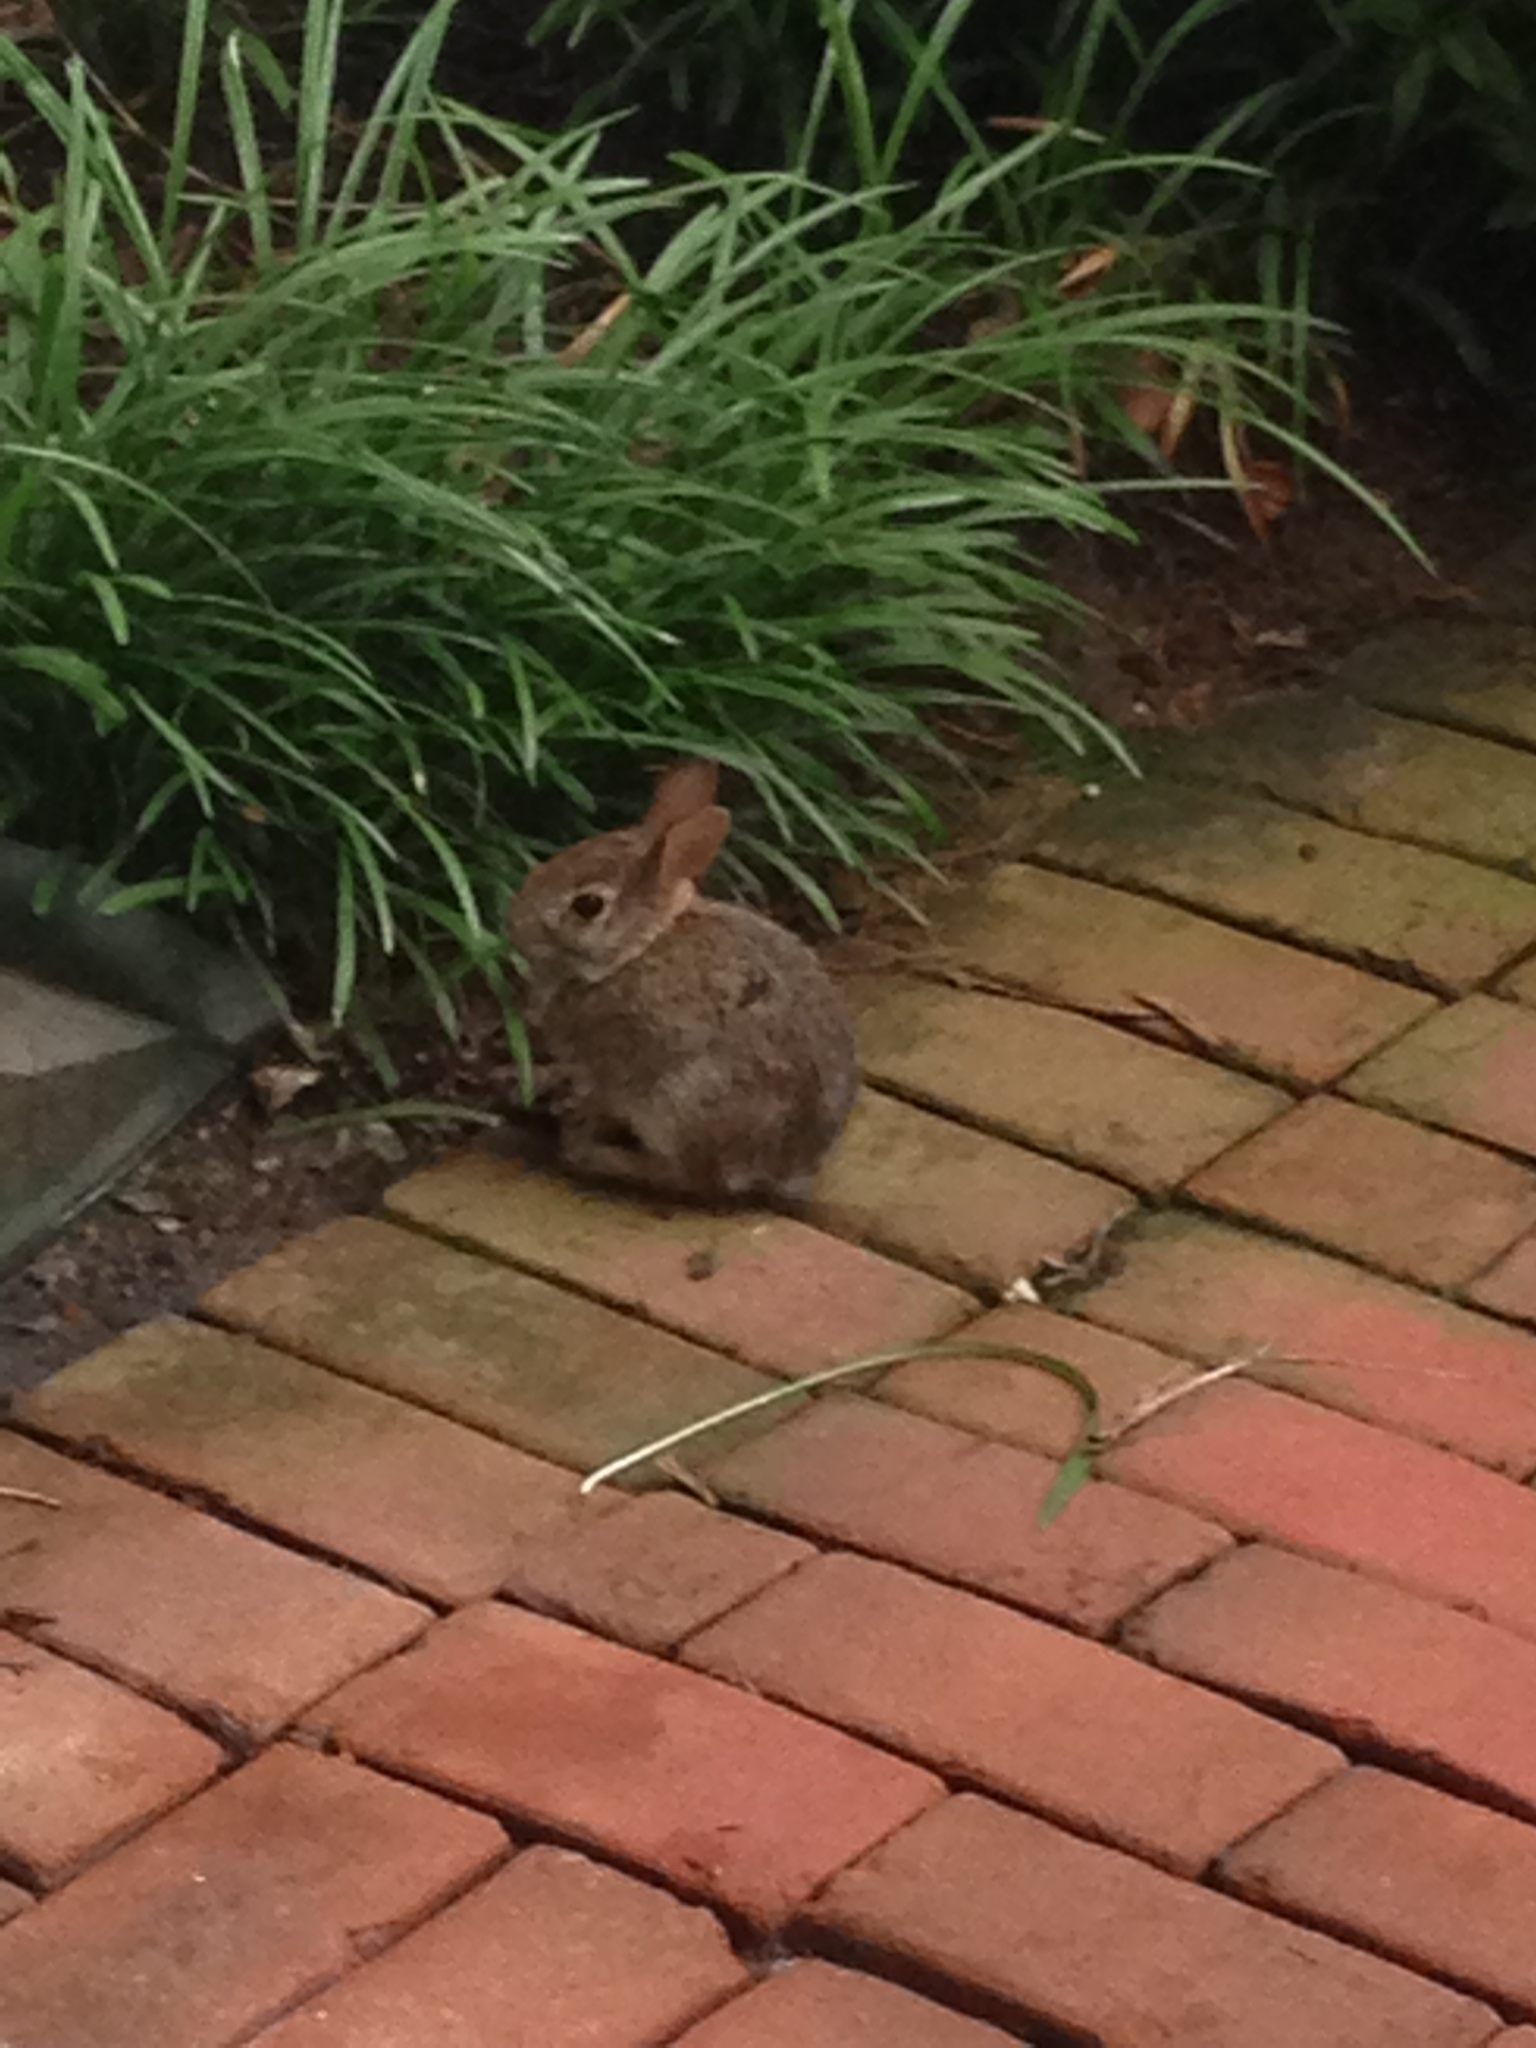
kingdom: Animalia
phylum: Chordata
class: Mammalia
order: Lagomorpha
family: Leporidae
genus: Sylvilagus
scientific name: Sylvilagus floridanus
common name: Eastern cottontail
